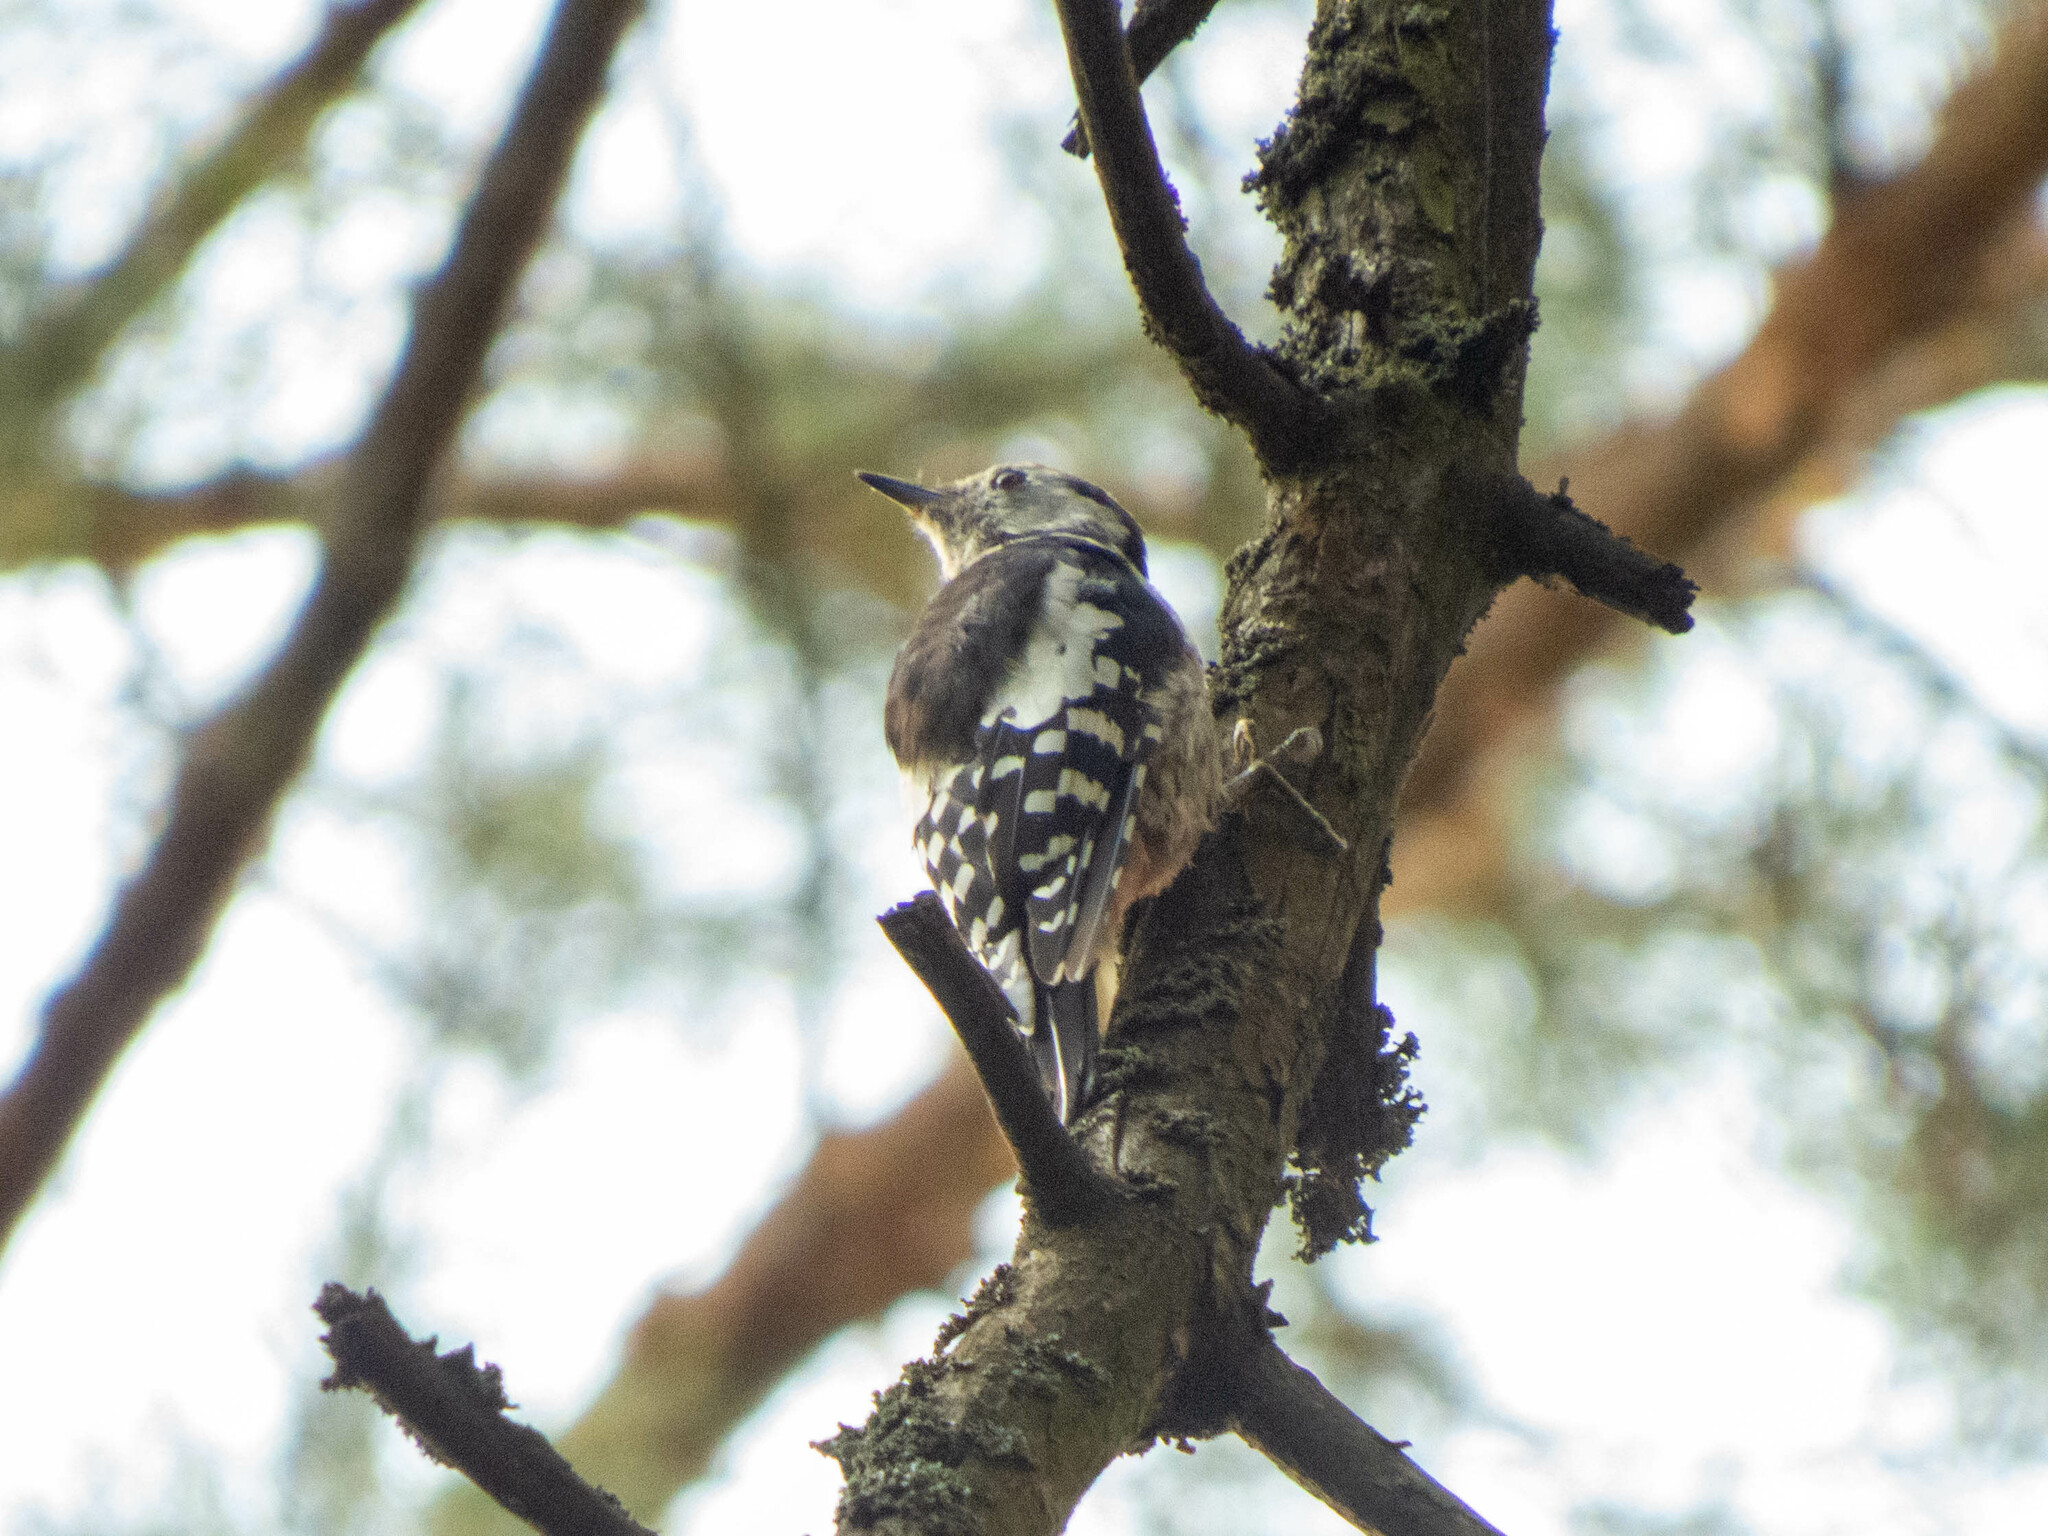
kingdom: Animalia
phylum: Chordata
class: Aves
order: Piciformes
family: Picidae
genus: Dendrocoptes
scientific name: Dendrocoptes medius
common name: Middle spotted woodpecker
